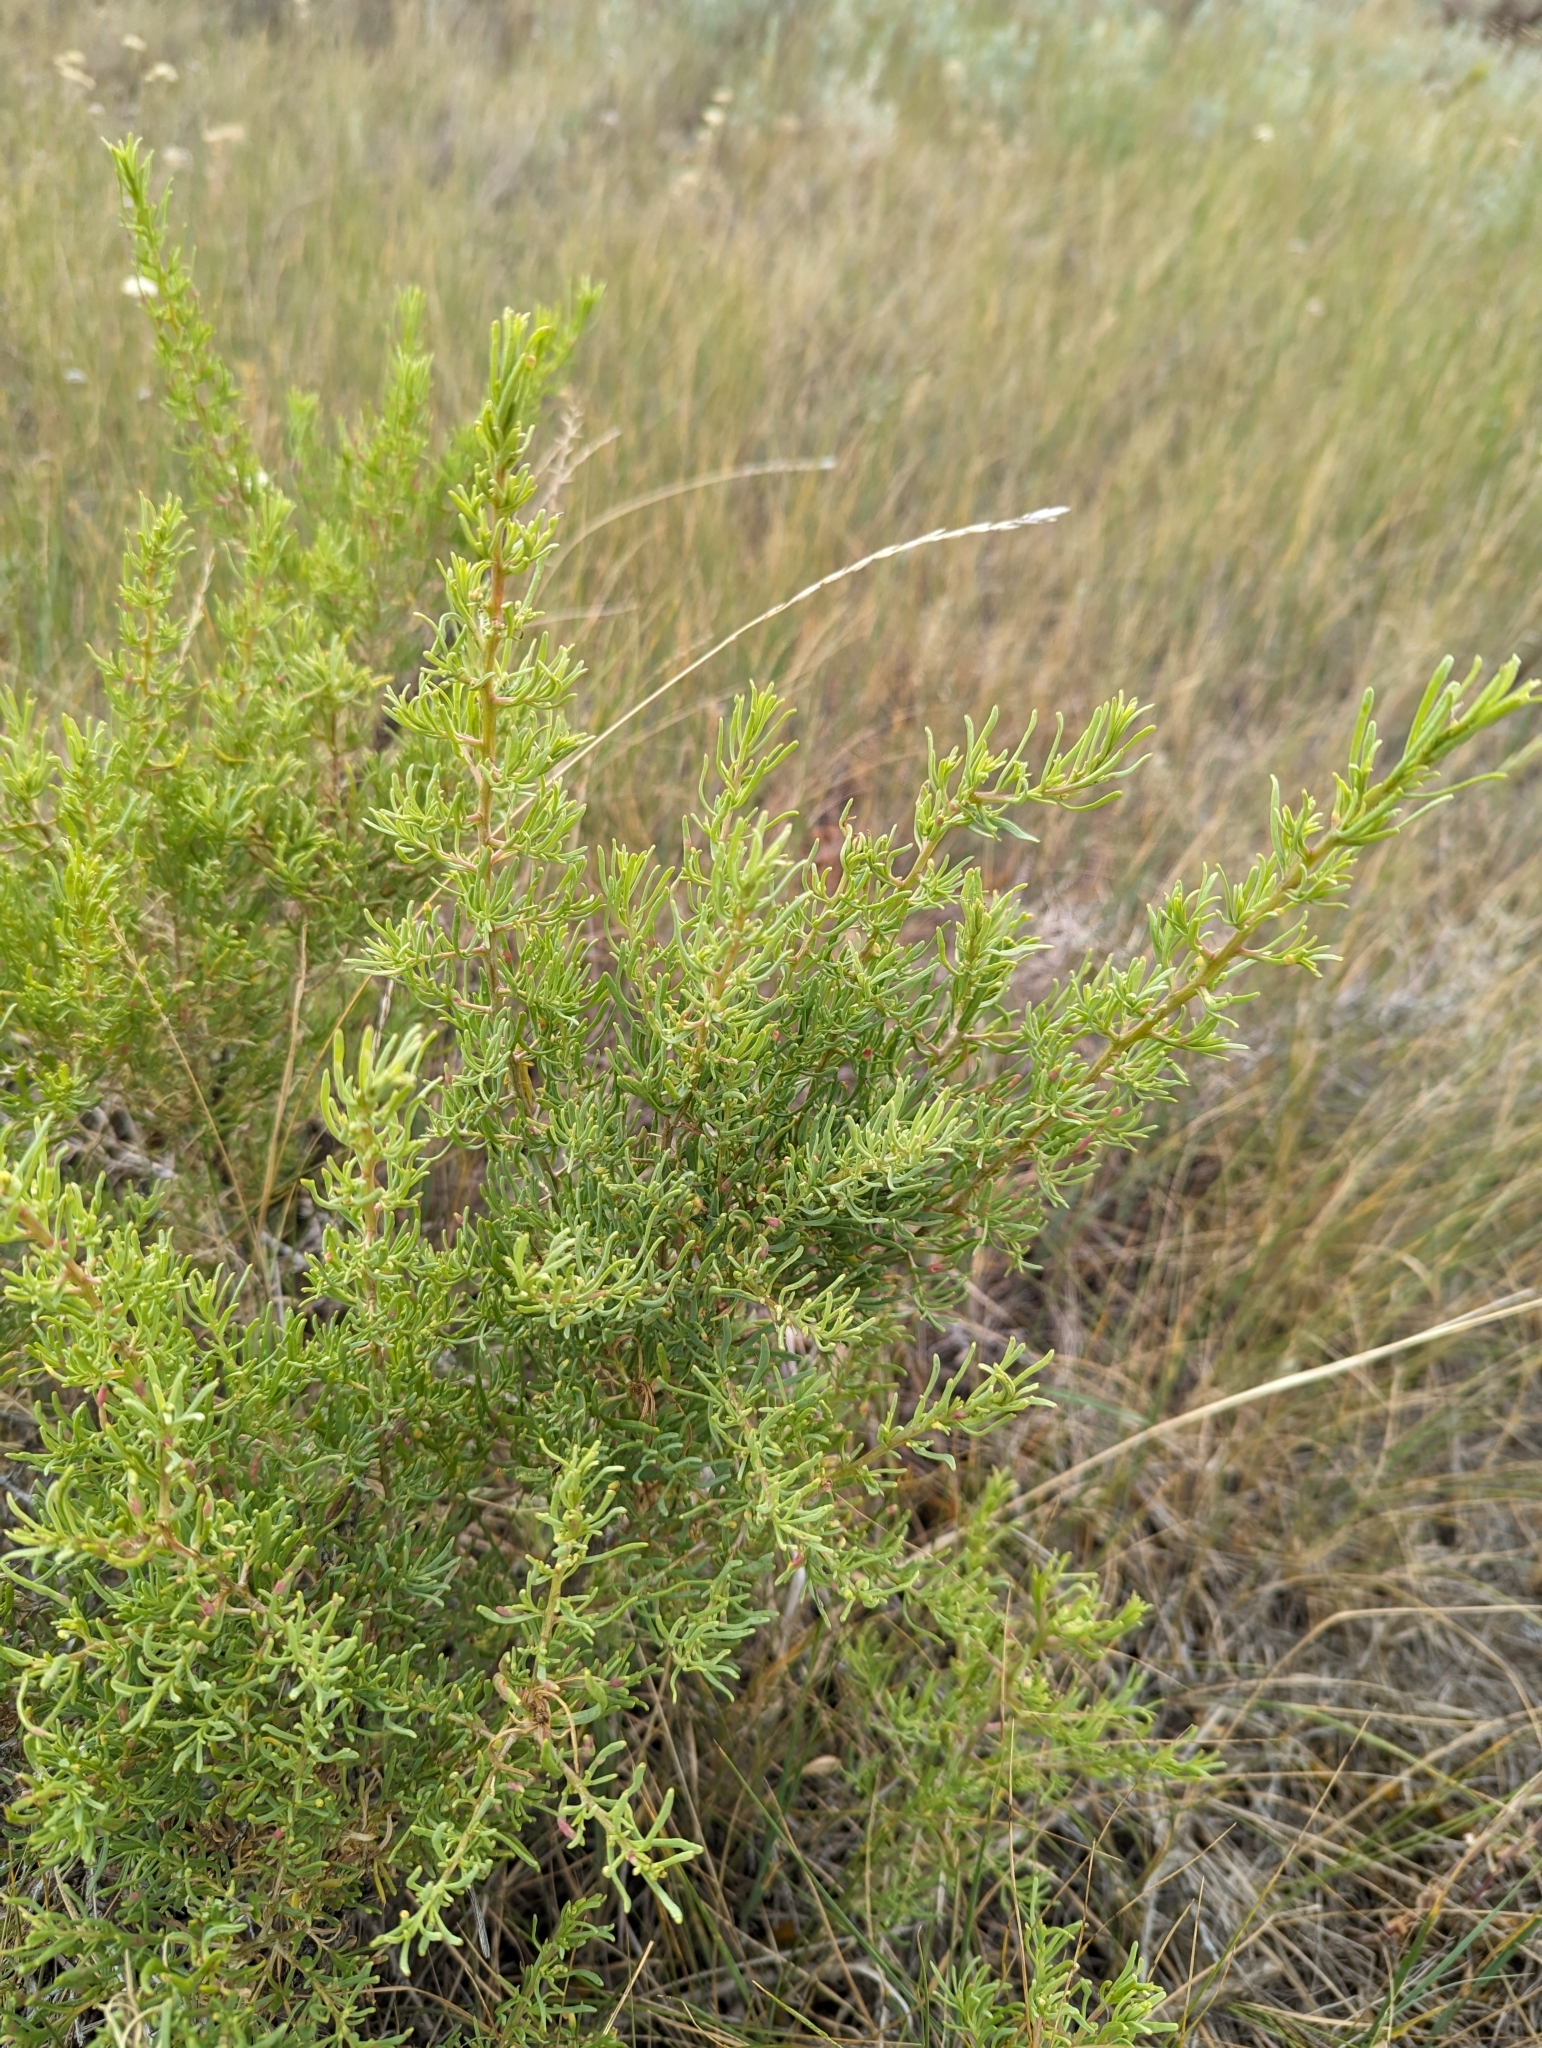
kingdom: Plantae
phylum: Tracheophyta
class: Magnoliopsida
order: Caryophyllales
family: Sarcobataceae
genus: Sarcobatus
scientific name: Sarcobatus vermiculatus
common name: Greasewood
